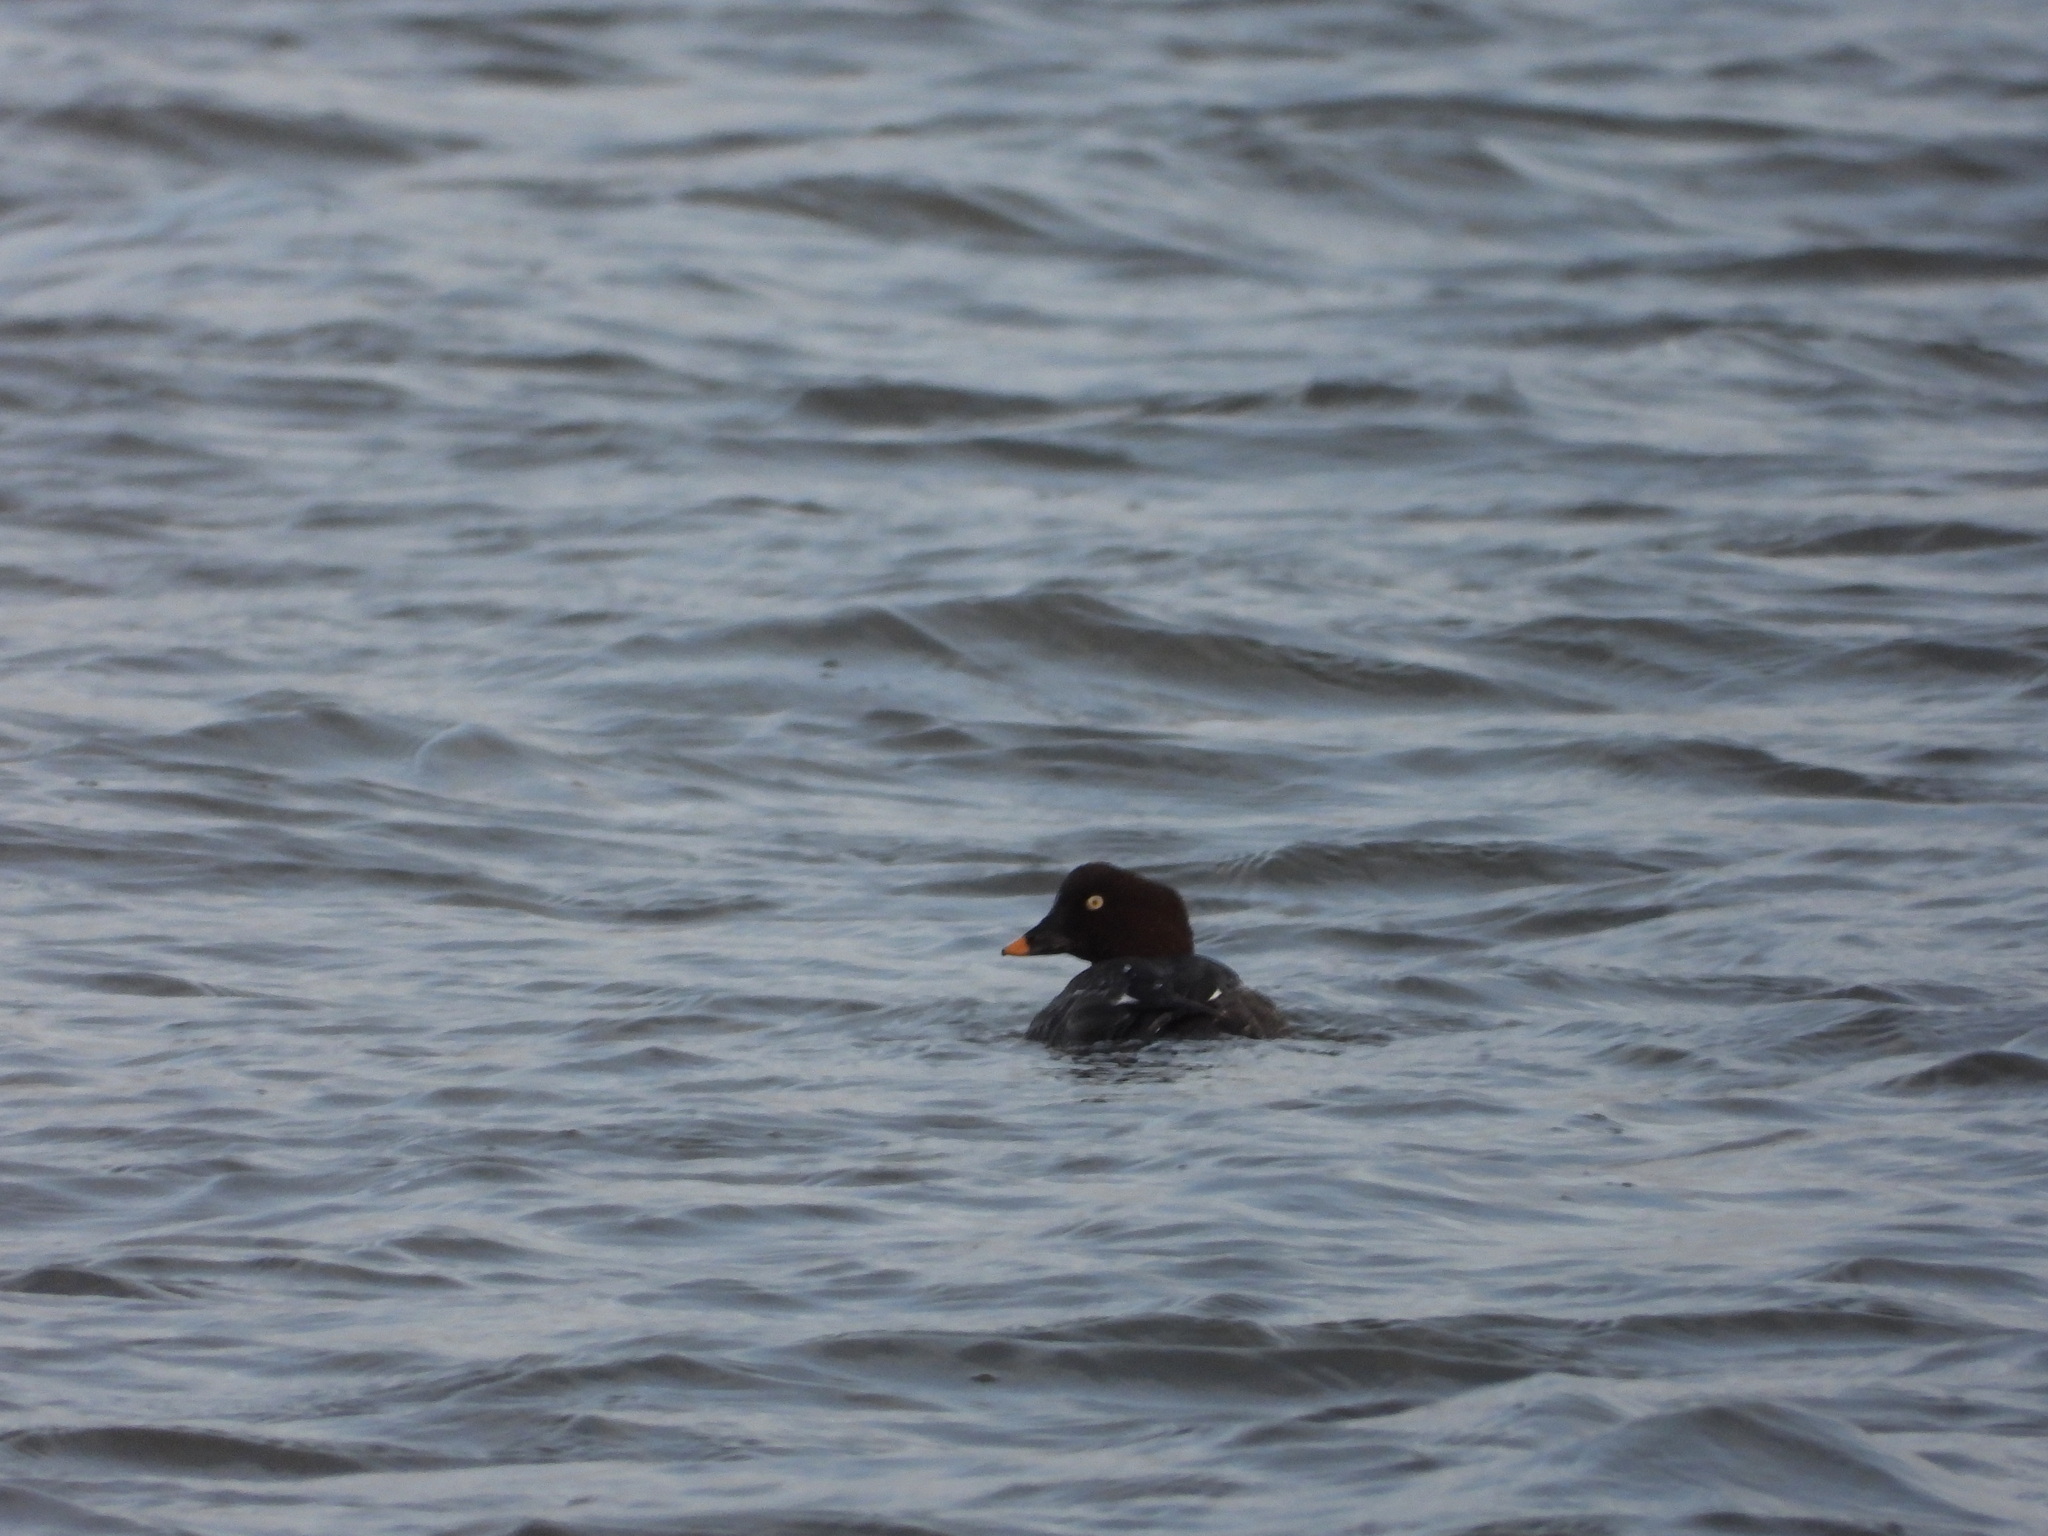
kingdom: Animalia
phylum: Chordata
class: Aves
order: Anseriformes
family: Anatidae
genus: Bucephala
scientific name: Bucephala clangula
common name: Common goldeneye
